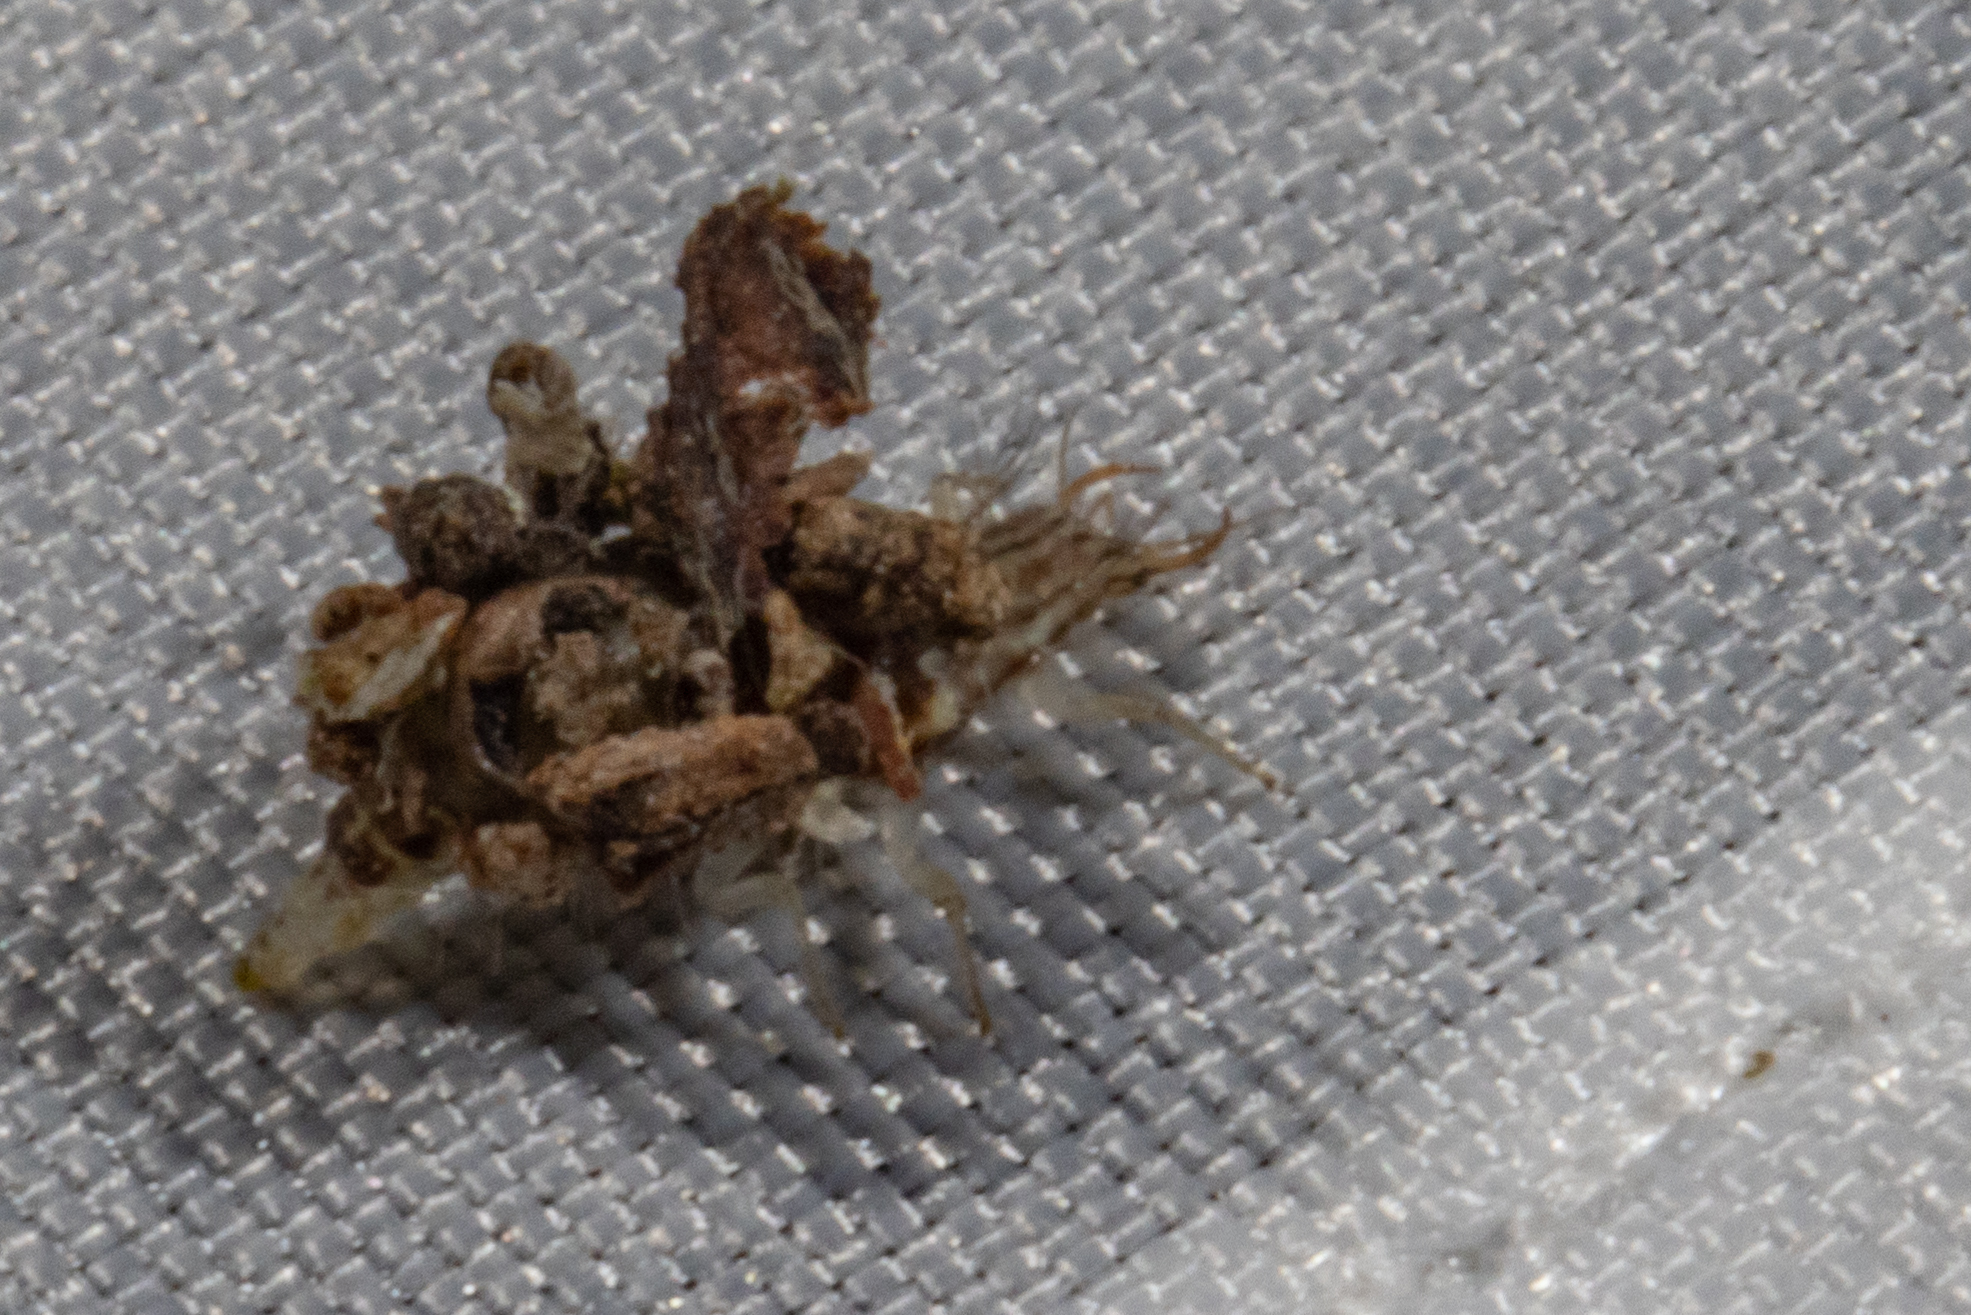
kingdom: Animalia
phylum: Arthropoda
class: Insecta
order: Neuroptera
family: Chrysopidae
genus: Mallada
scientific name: Mallada basalis
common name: Green lacewing
